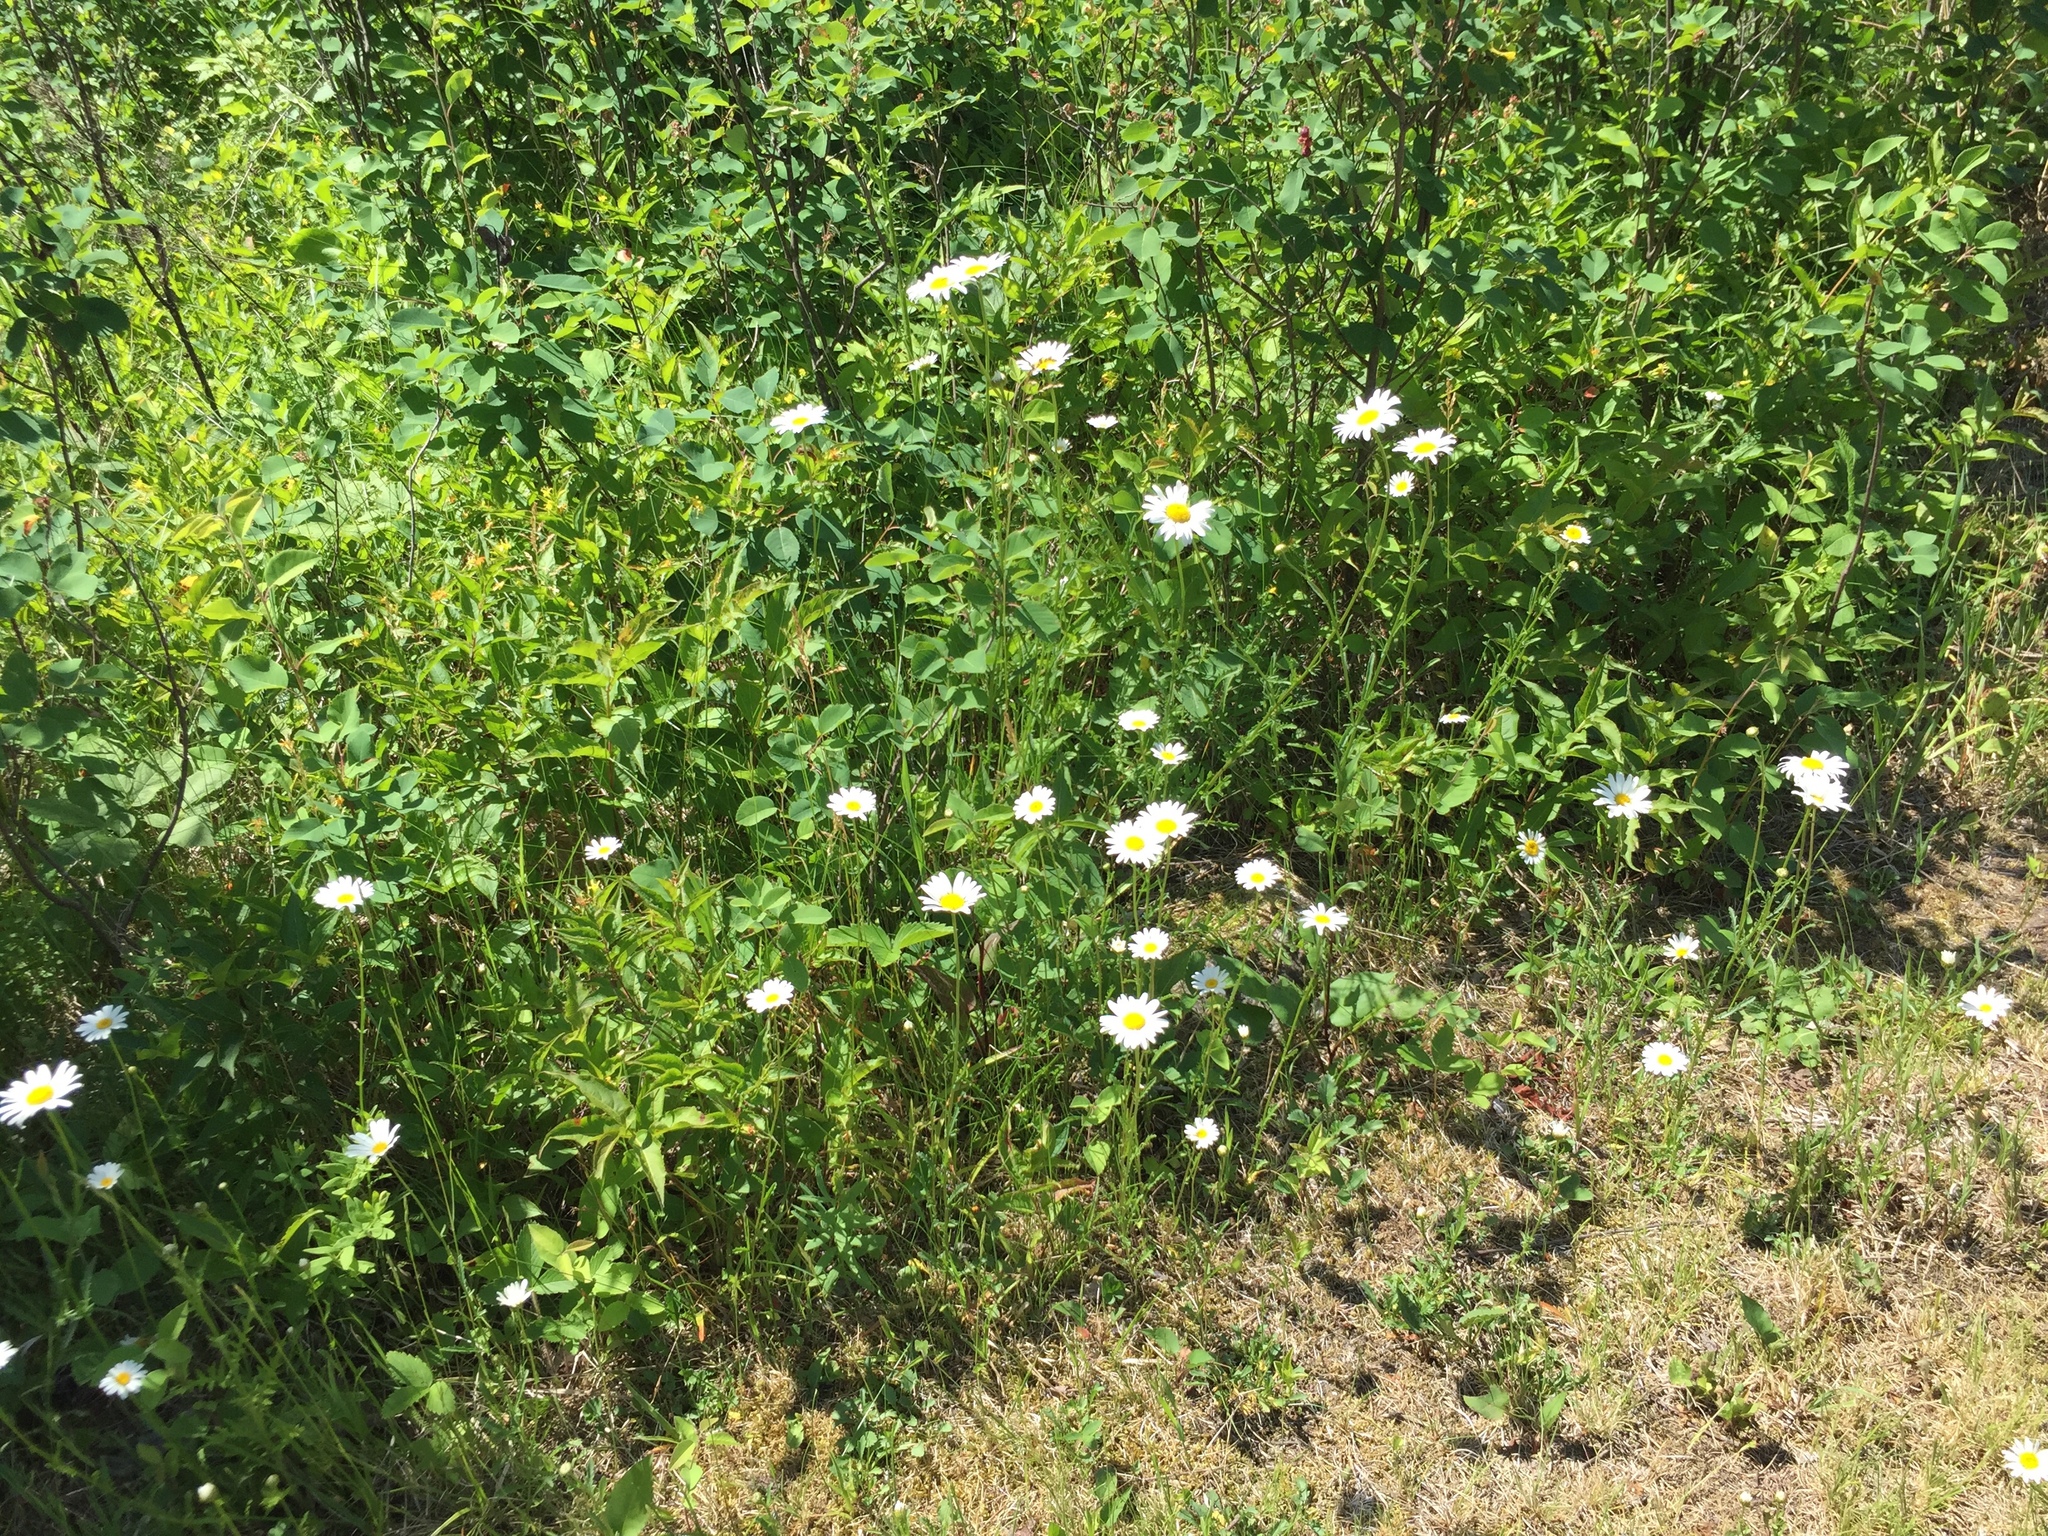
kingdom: Plantae
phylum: Tracheophyta
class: Magnoliopsida
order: Asterales
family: Asteraceae
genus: Leucanthemum
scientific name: Leucanthemum vulgare
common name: Oxeye daisy
